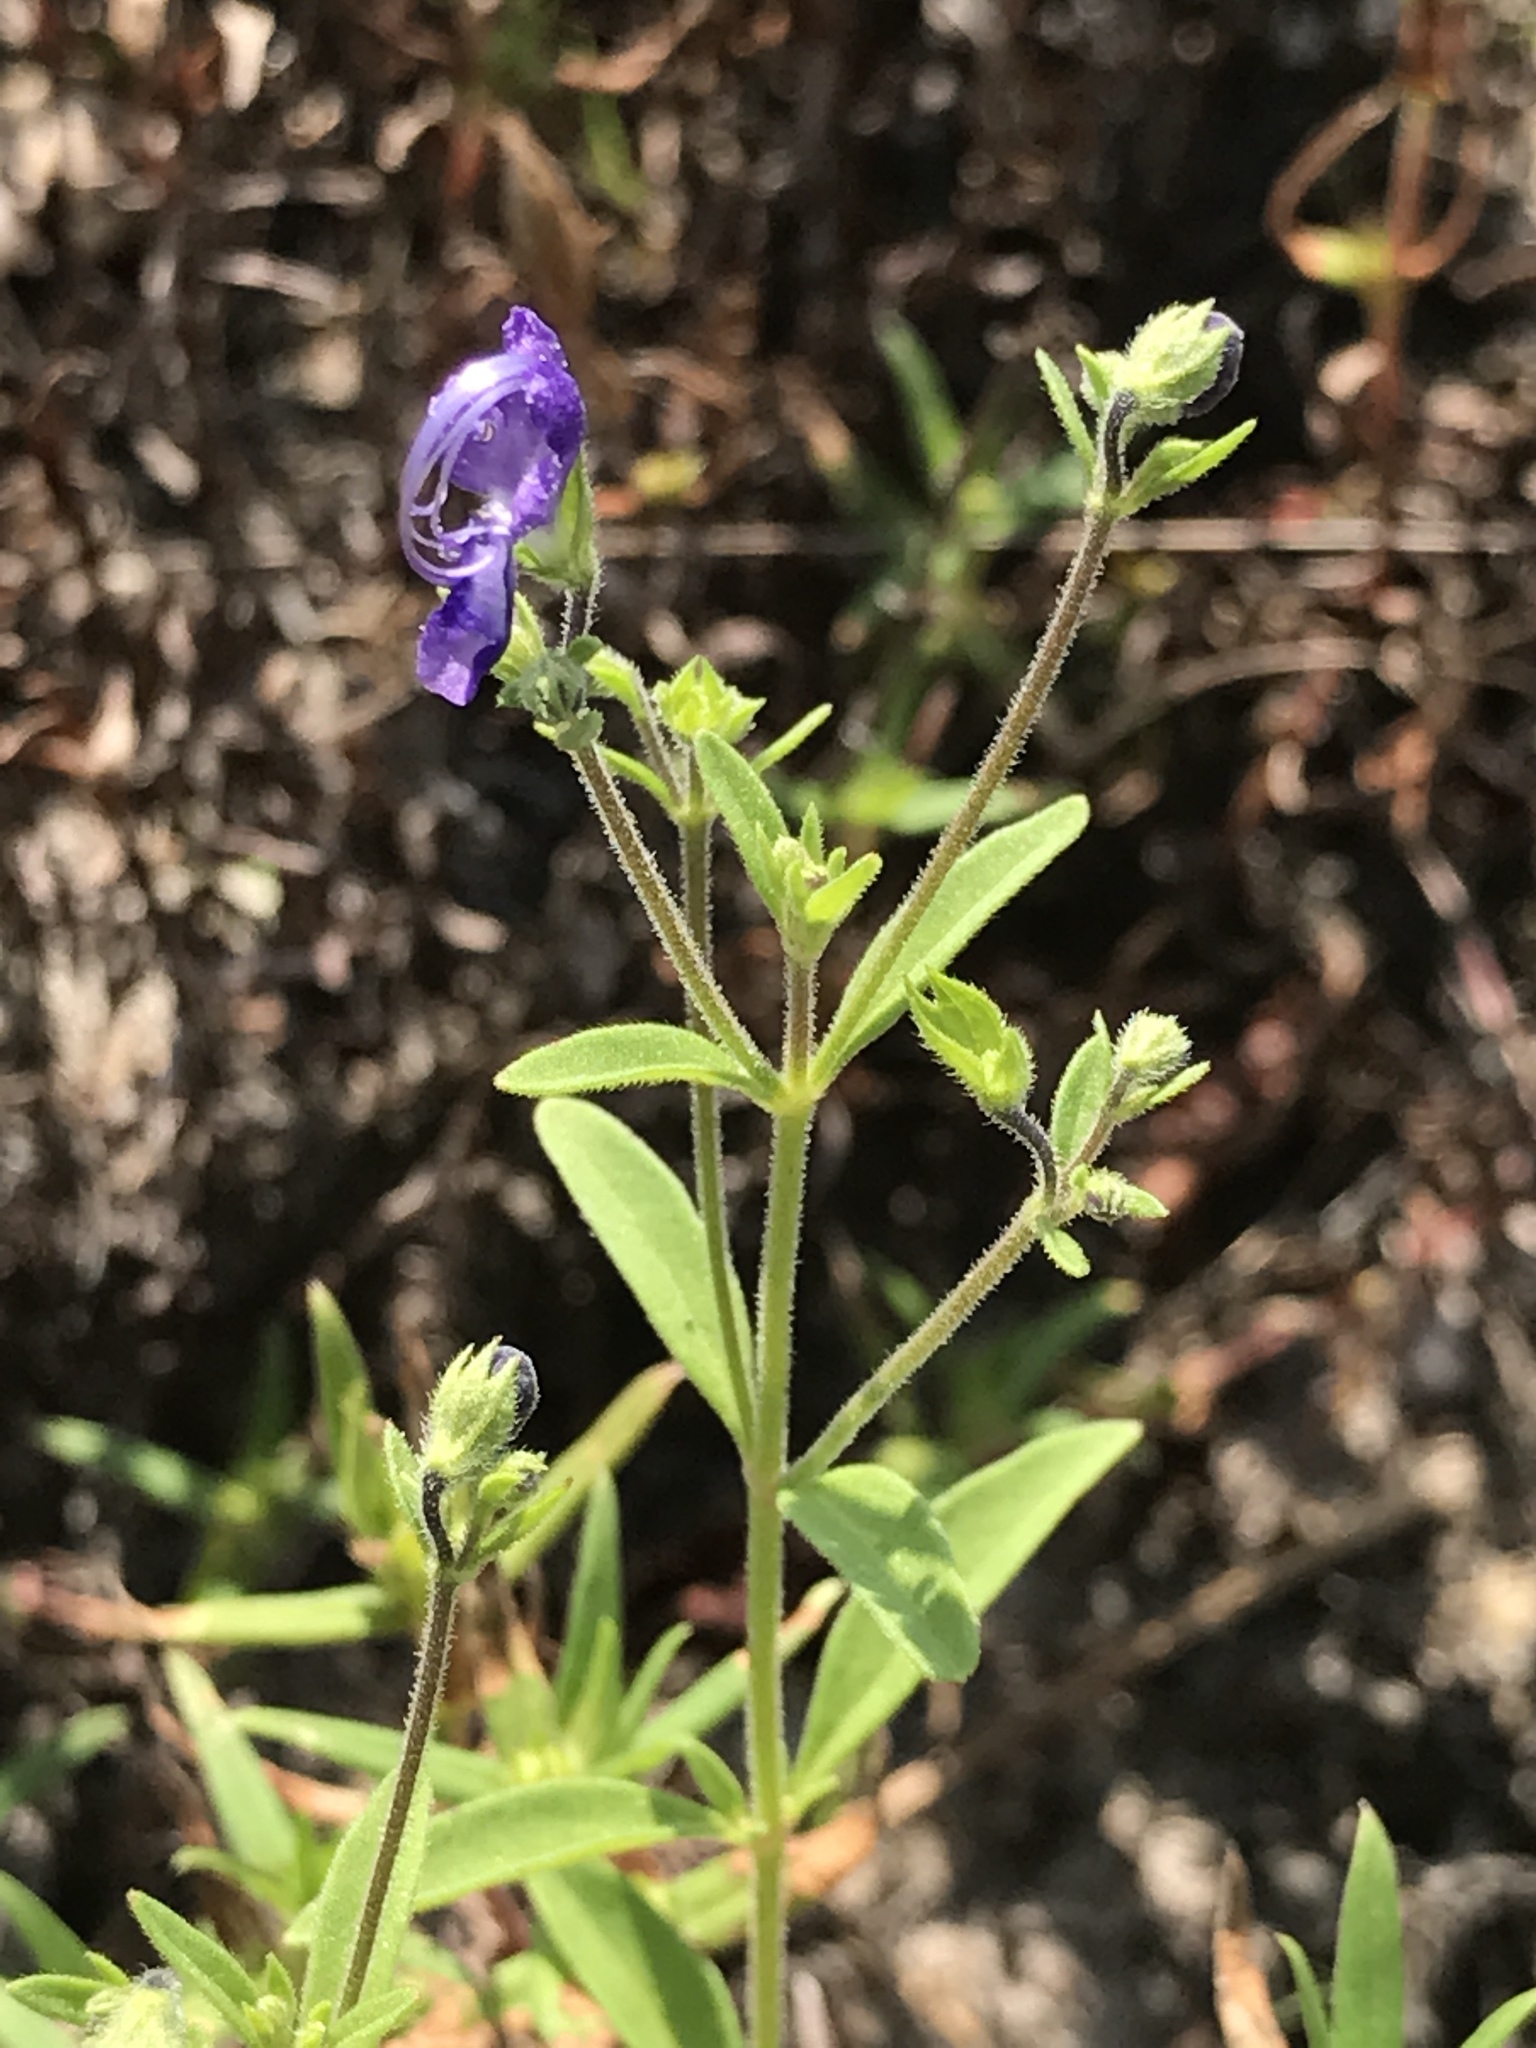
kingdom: Plantae
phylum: Tracheophyta
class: Magnoliopsida
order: Lamiales
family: Lamiaceae
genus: Trichostema
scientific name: Trichostema dichotomum
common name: Bastard pennyroyal
